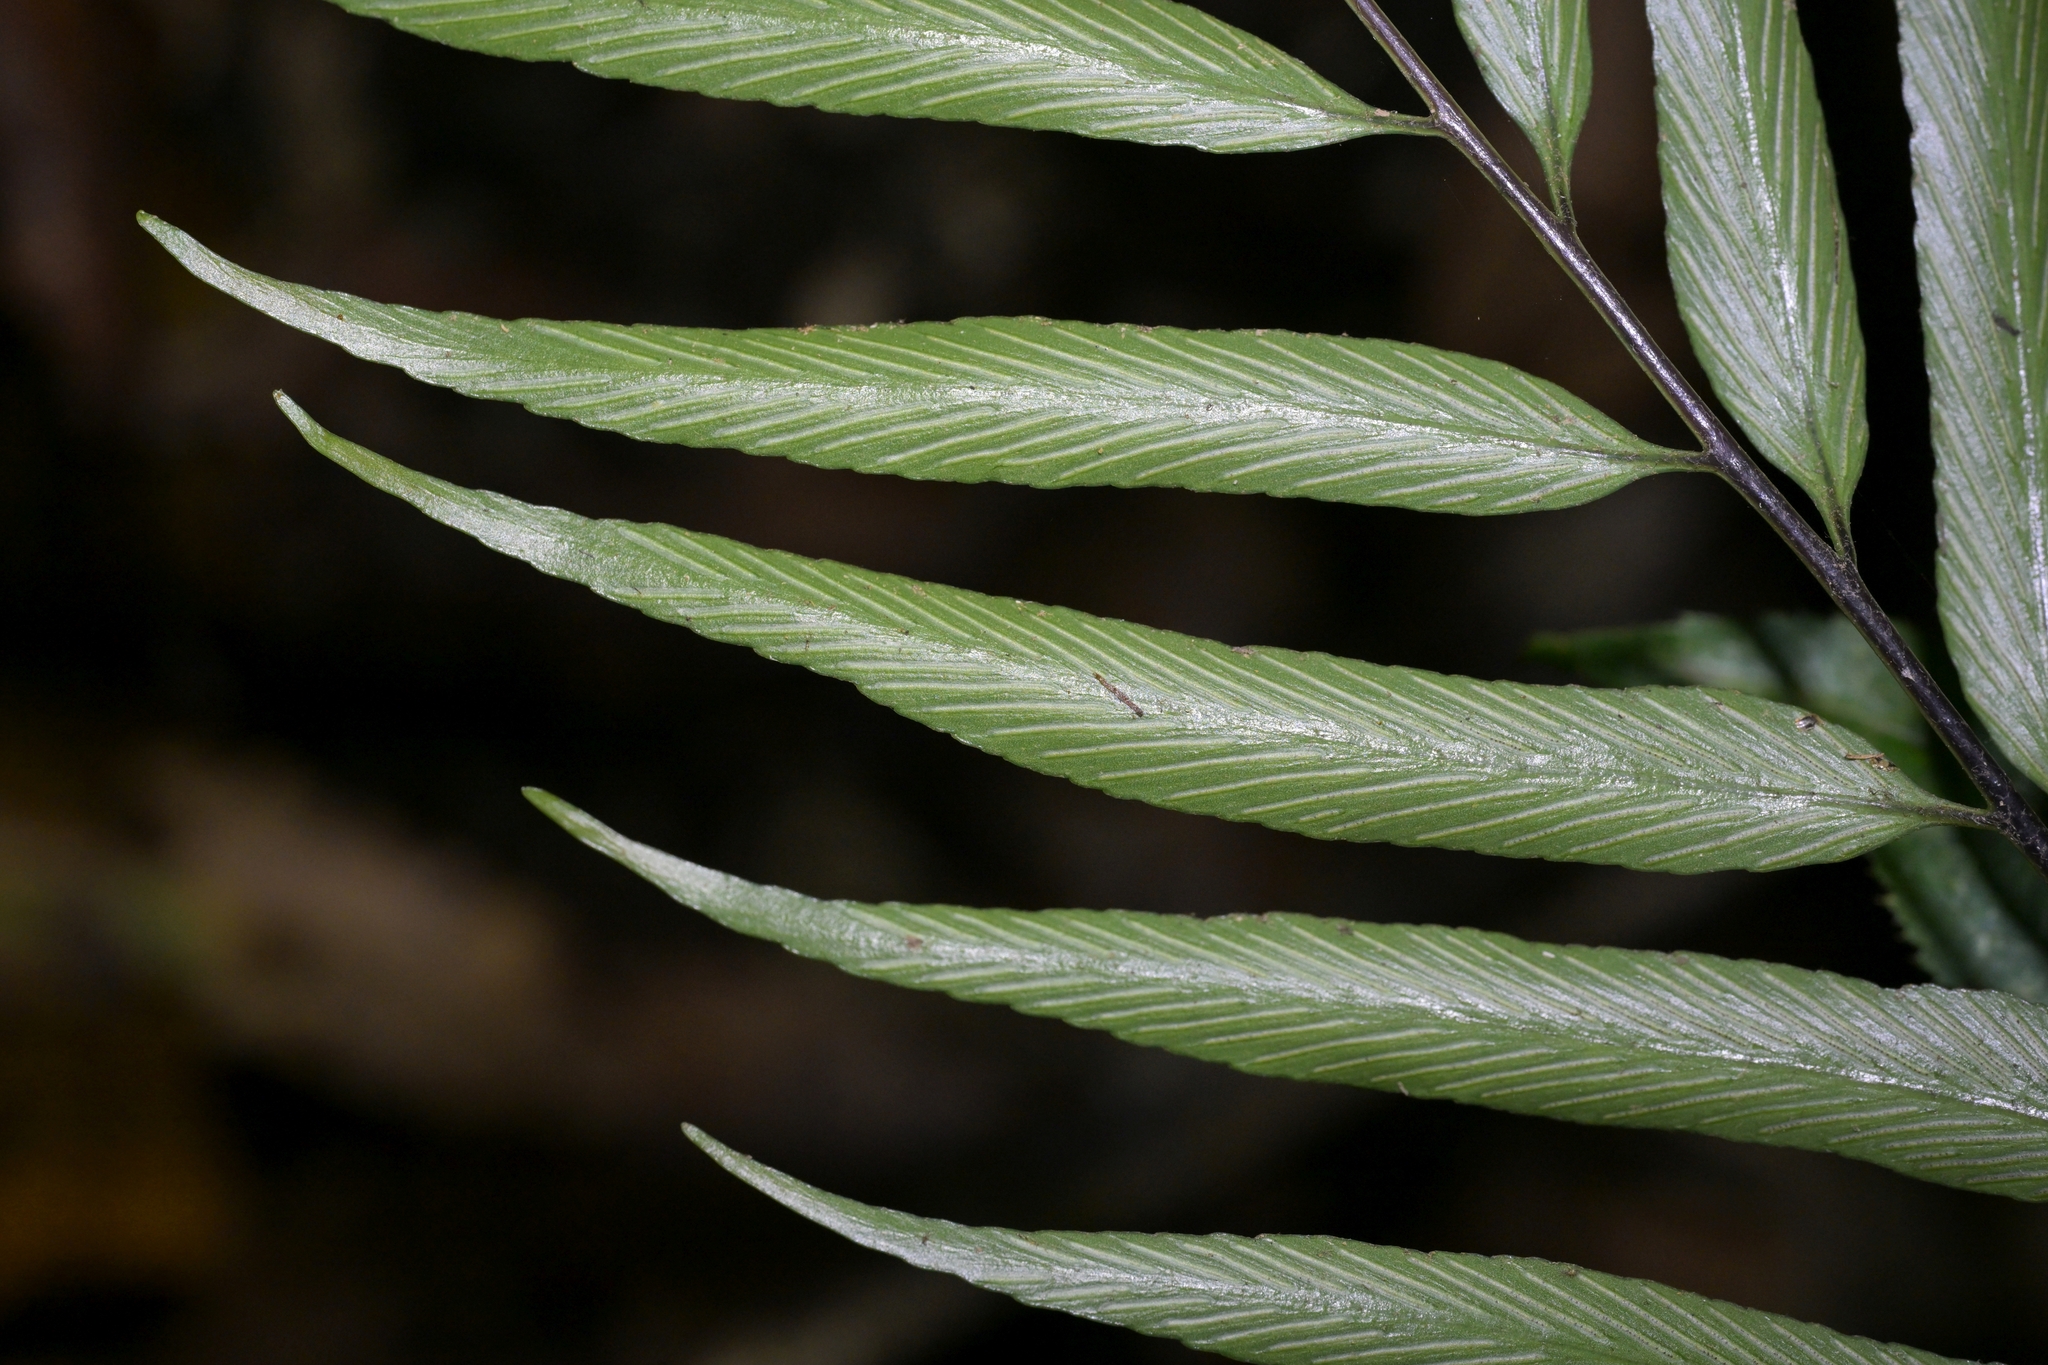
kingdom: Plantae
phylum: Tracheophyta
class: Polypodiopsida
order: Polypodiales
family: Aspleniaceae
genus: Asplenium
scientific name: Asplenium oblongifolium
